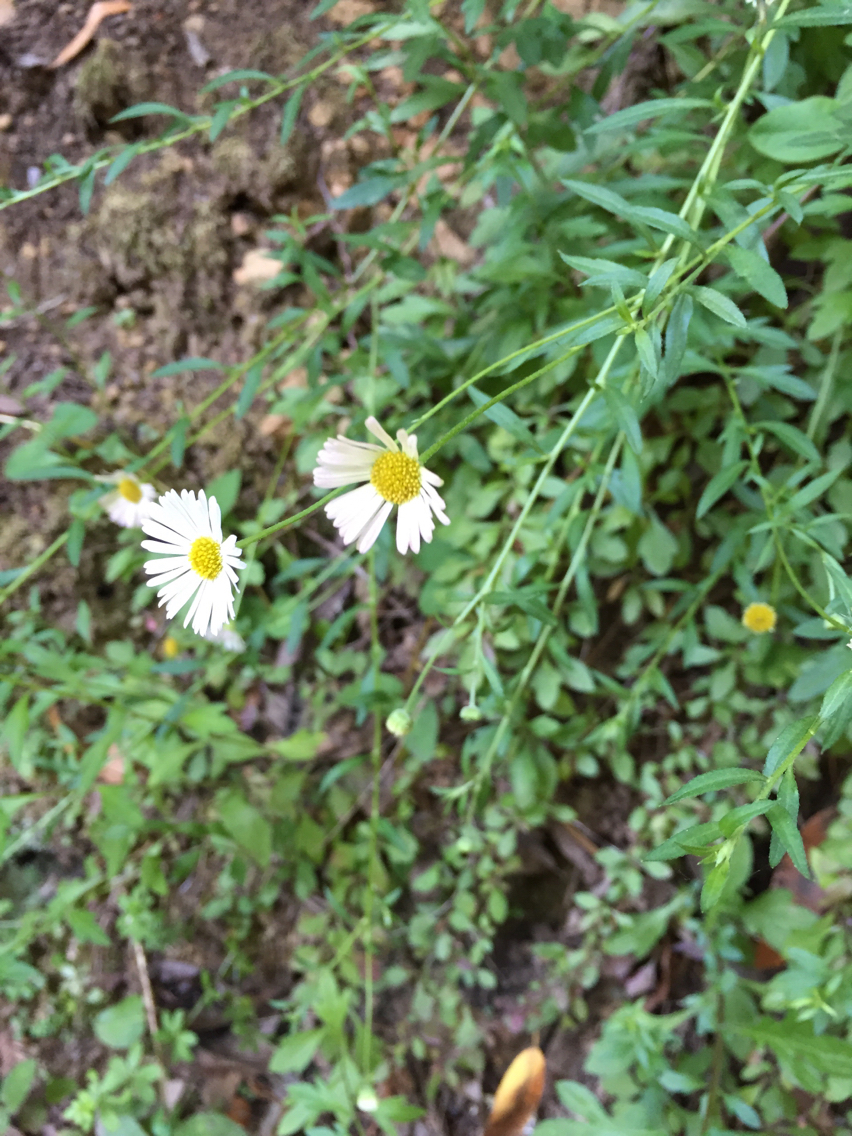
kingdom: Plantae
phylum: Tracheophyta
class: Magnoliopsida
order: Asterales
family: Asteraceae
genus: Erigeron
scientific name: Erigeron karvinskianus
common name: Mexican fleabane
